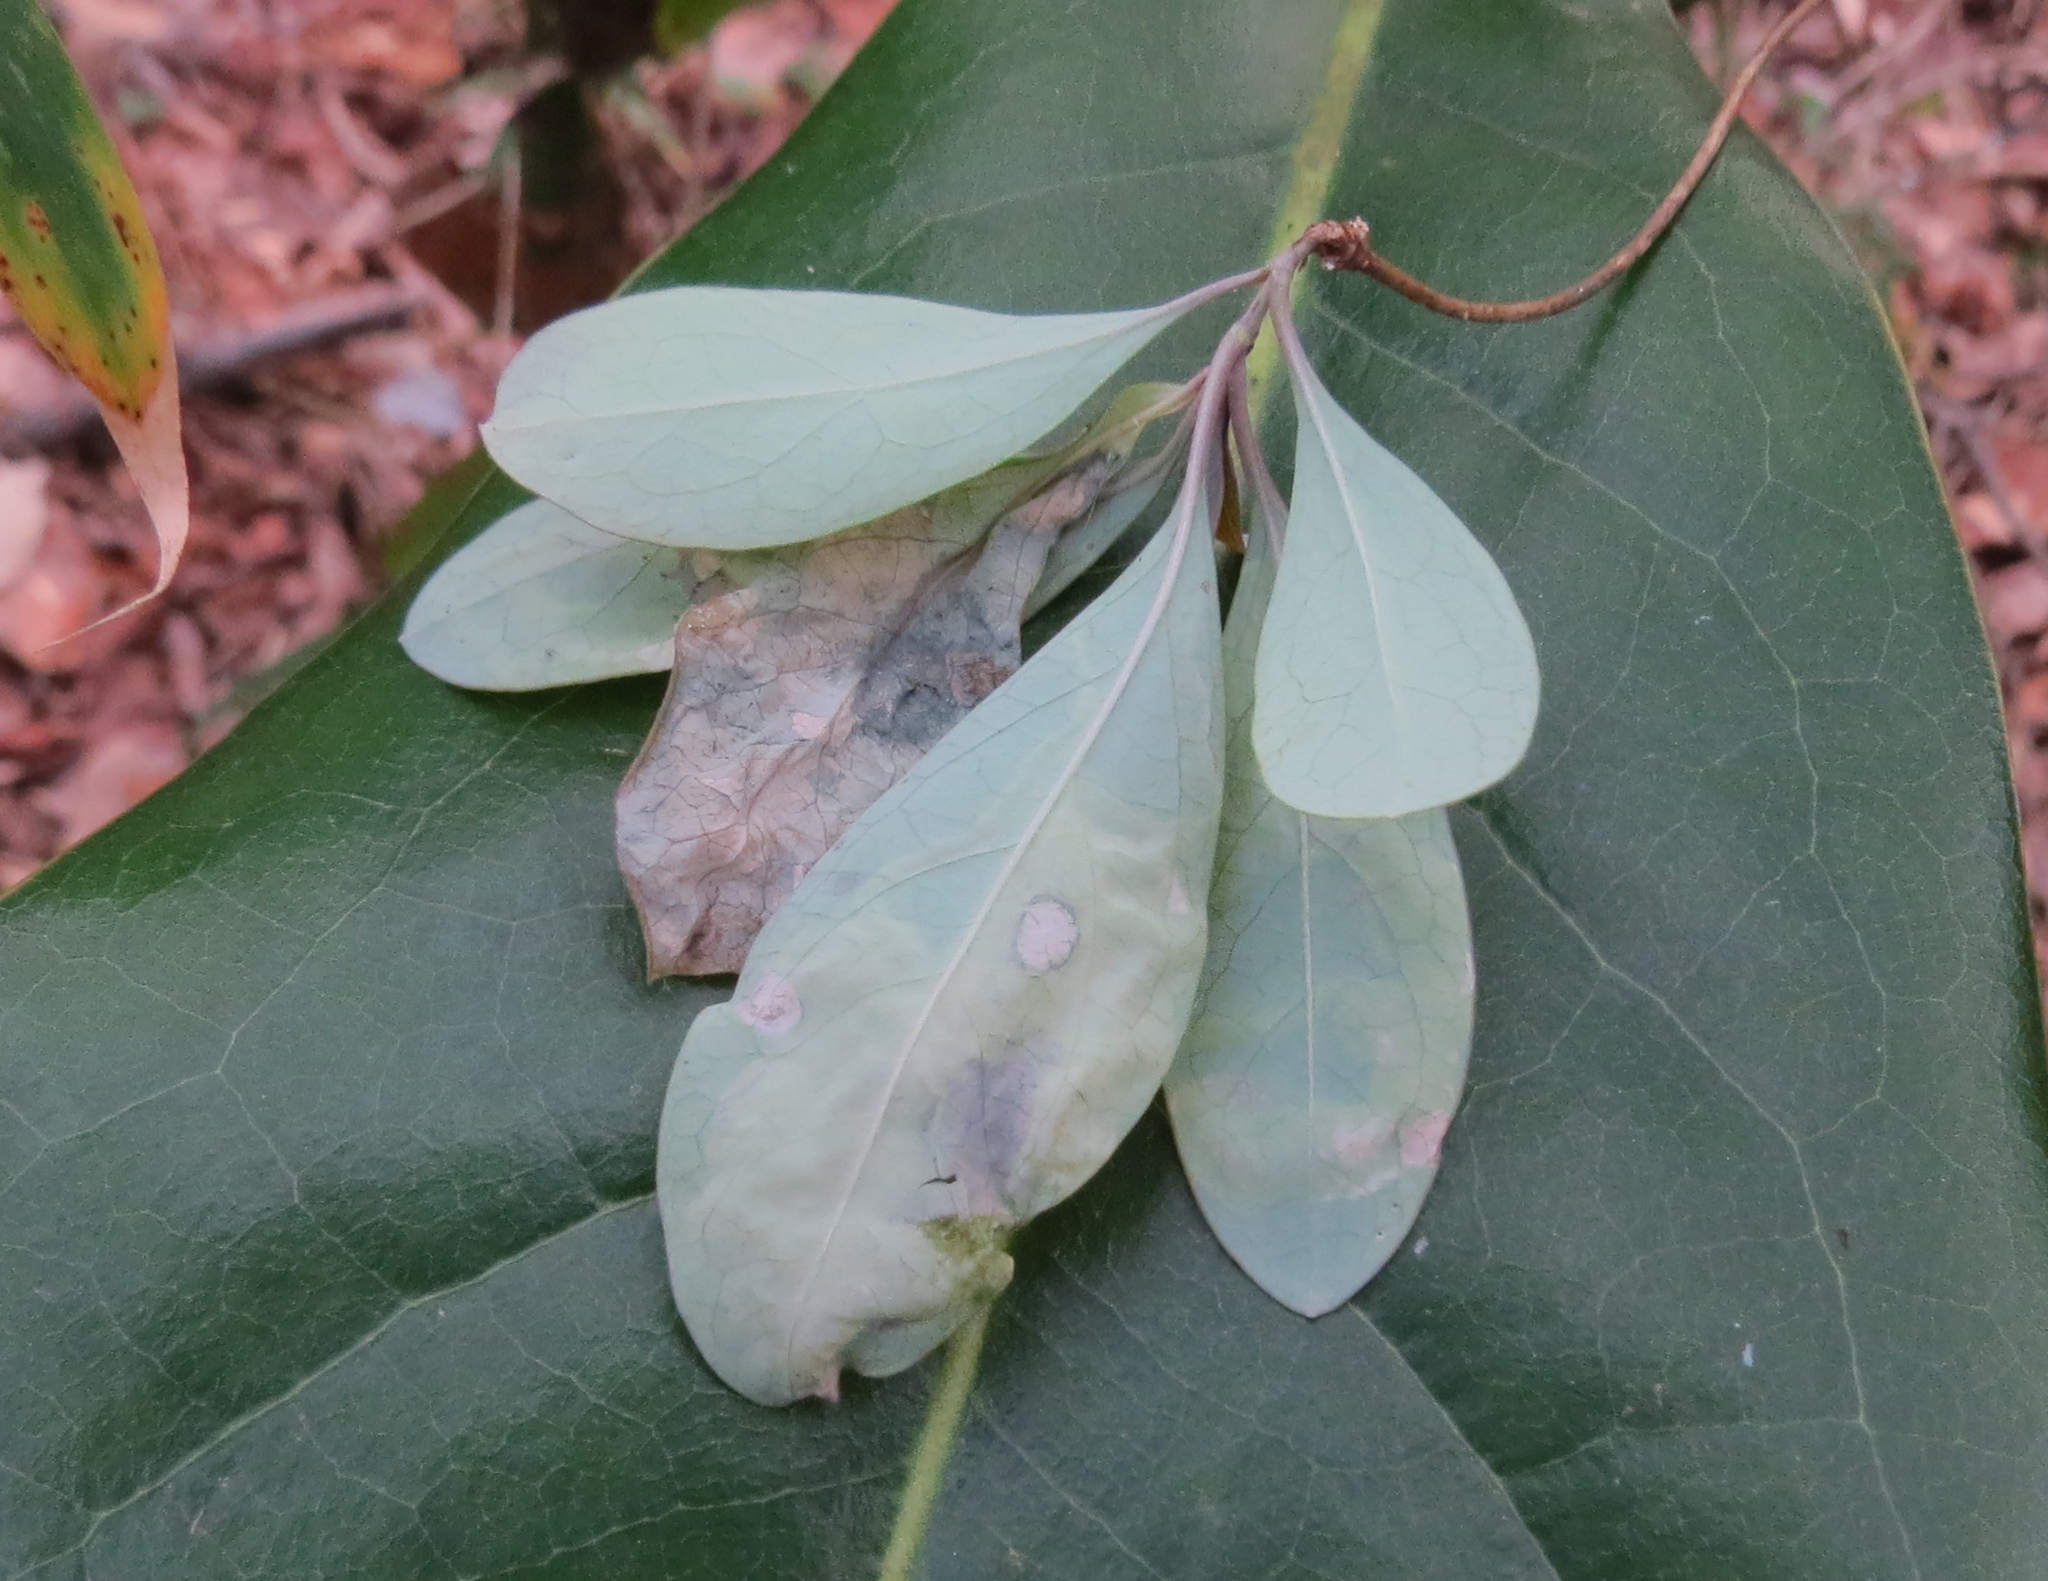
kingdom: Animalia
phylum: Arthropoda
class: Insecta
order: Diptera
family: Agromyzidae
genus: Aulagromyza
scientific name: Aulagromyza orbitalis
